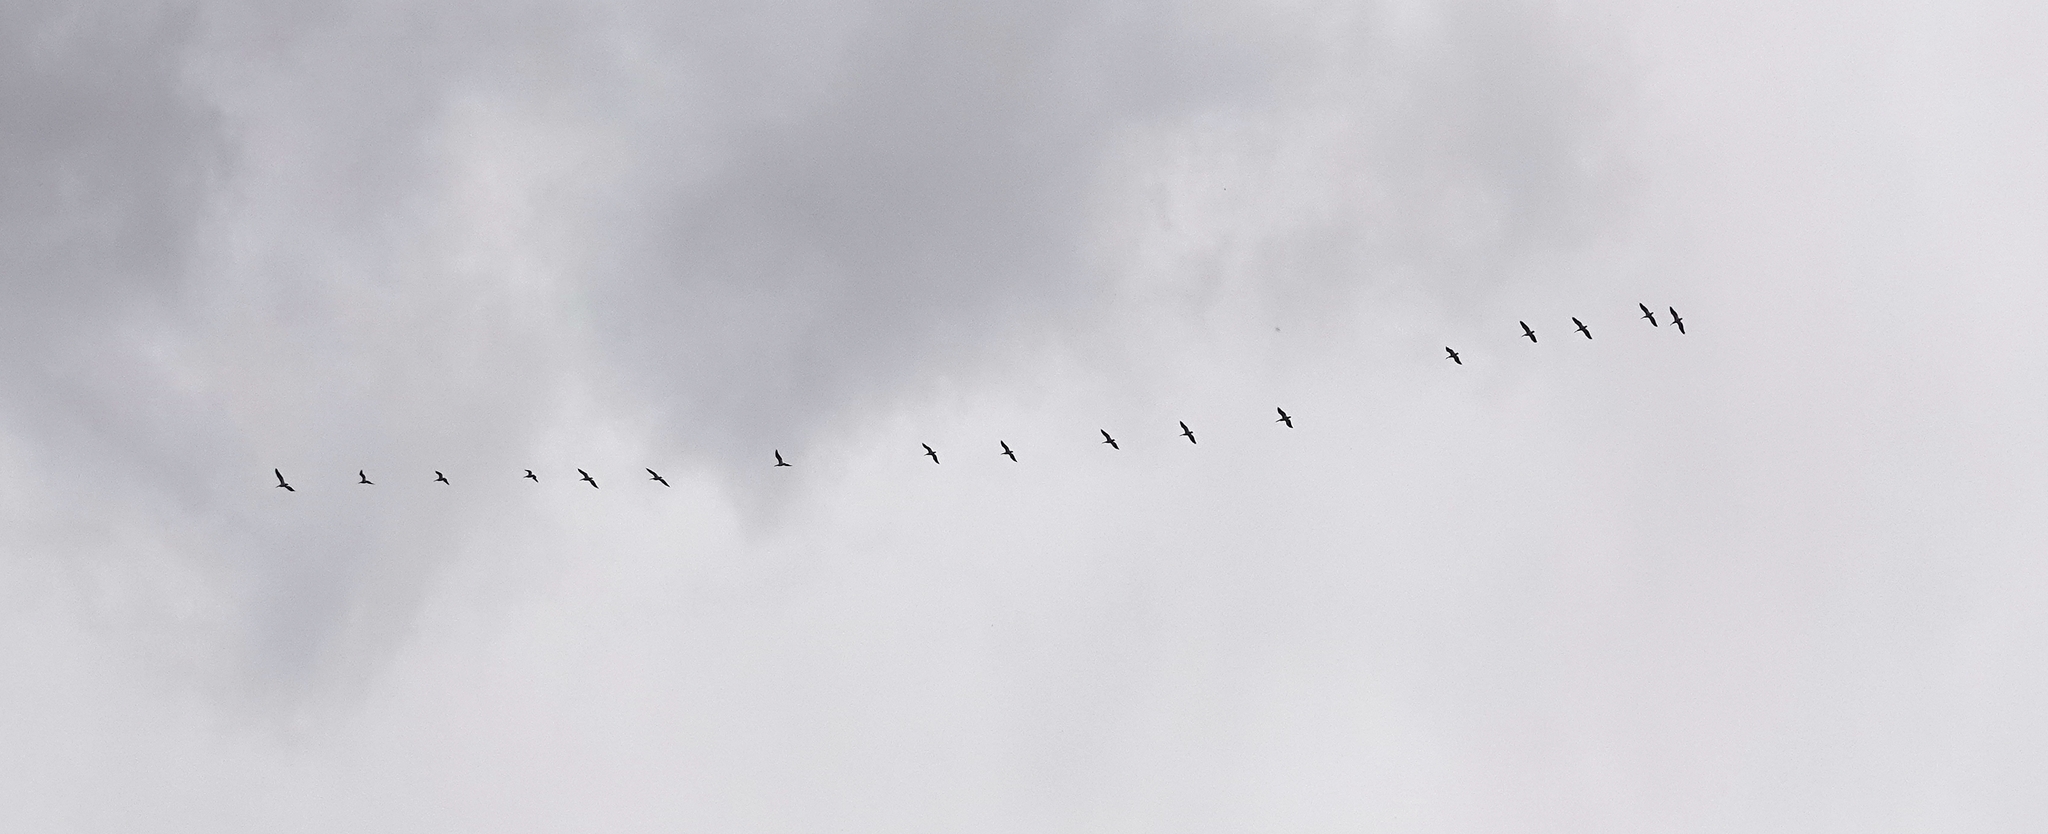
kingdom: Animalia
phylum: Chordata
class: Aves
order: Pelecaniformes
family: Pelecanidae
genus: Pelecanus
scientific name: Pelecanus erythrorhynchos
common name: American white pelican
